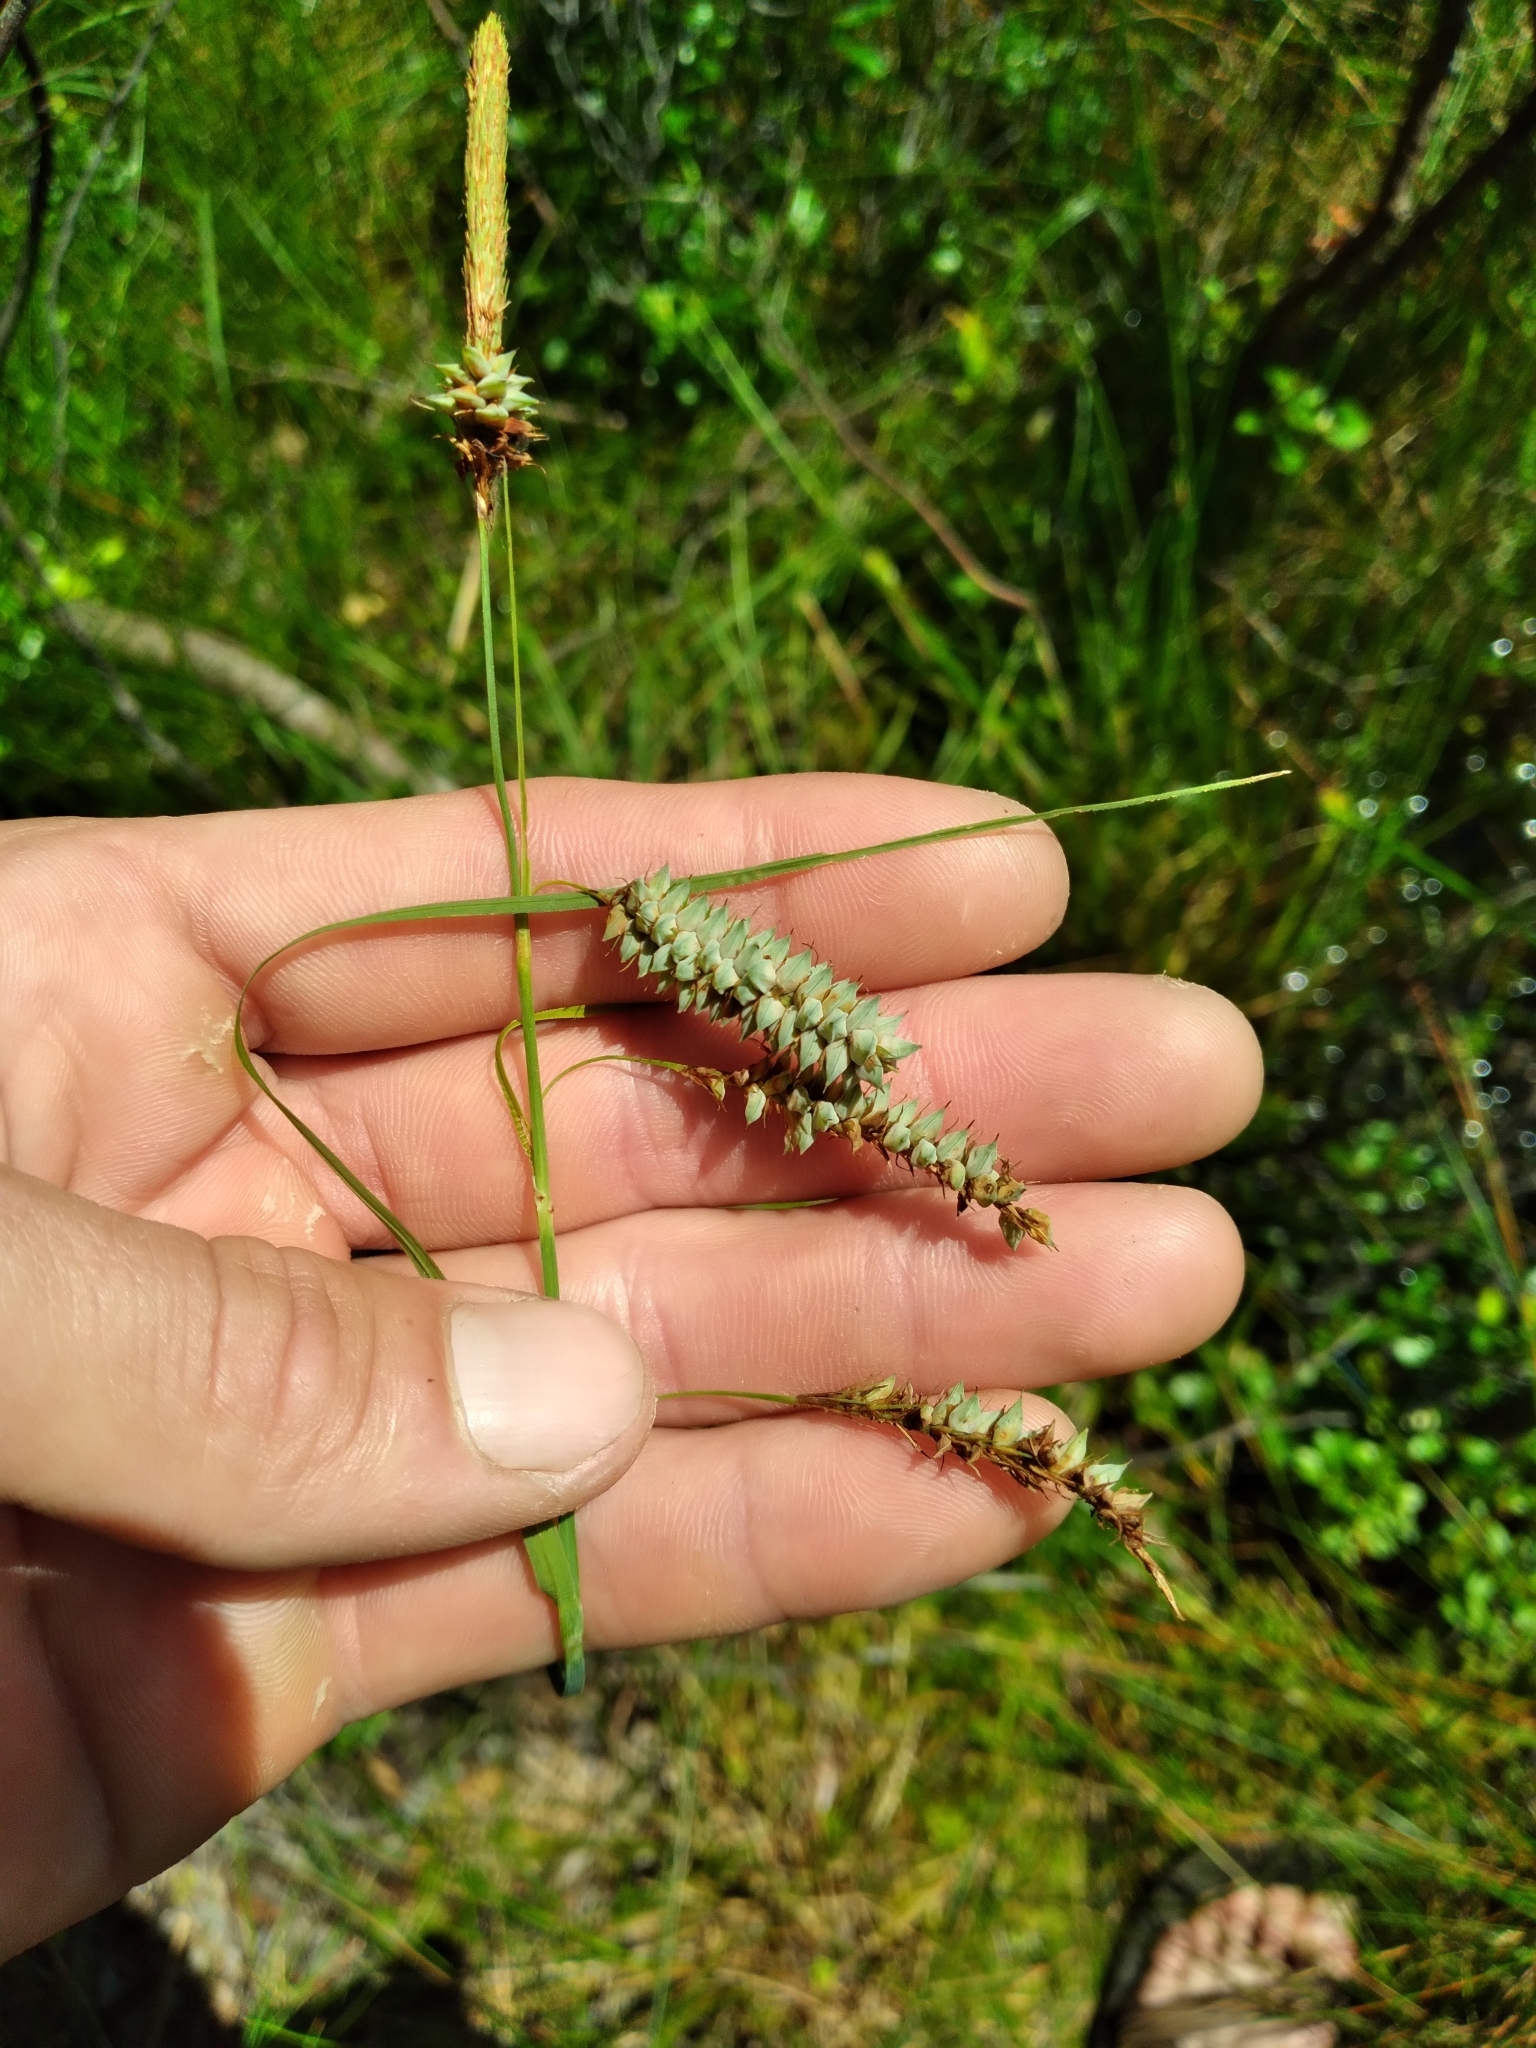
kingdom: Plantae
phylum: Tracheophyta
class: Liliopsida
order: Poales
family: Cyperaceae
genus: Carex
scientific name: Carex glaucescens
